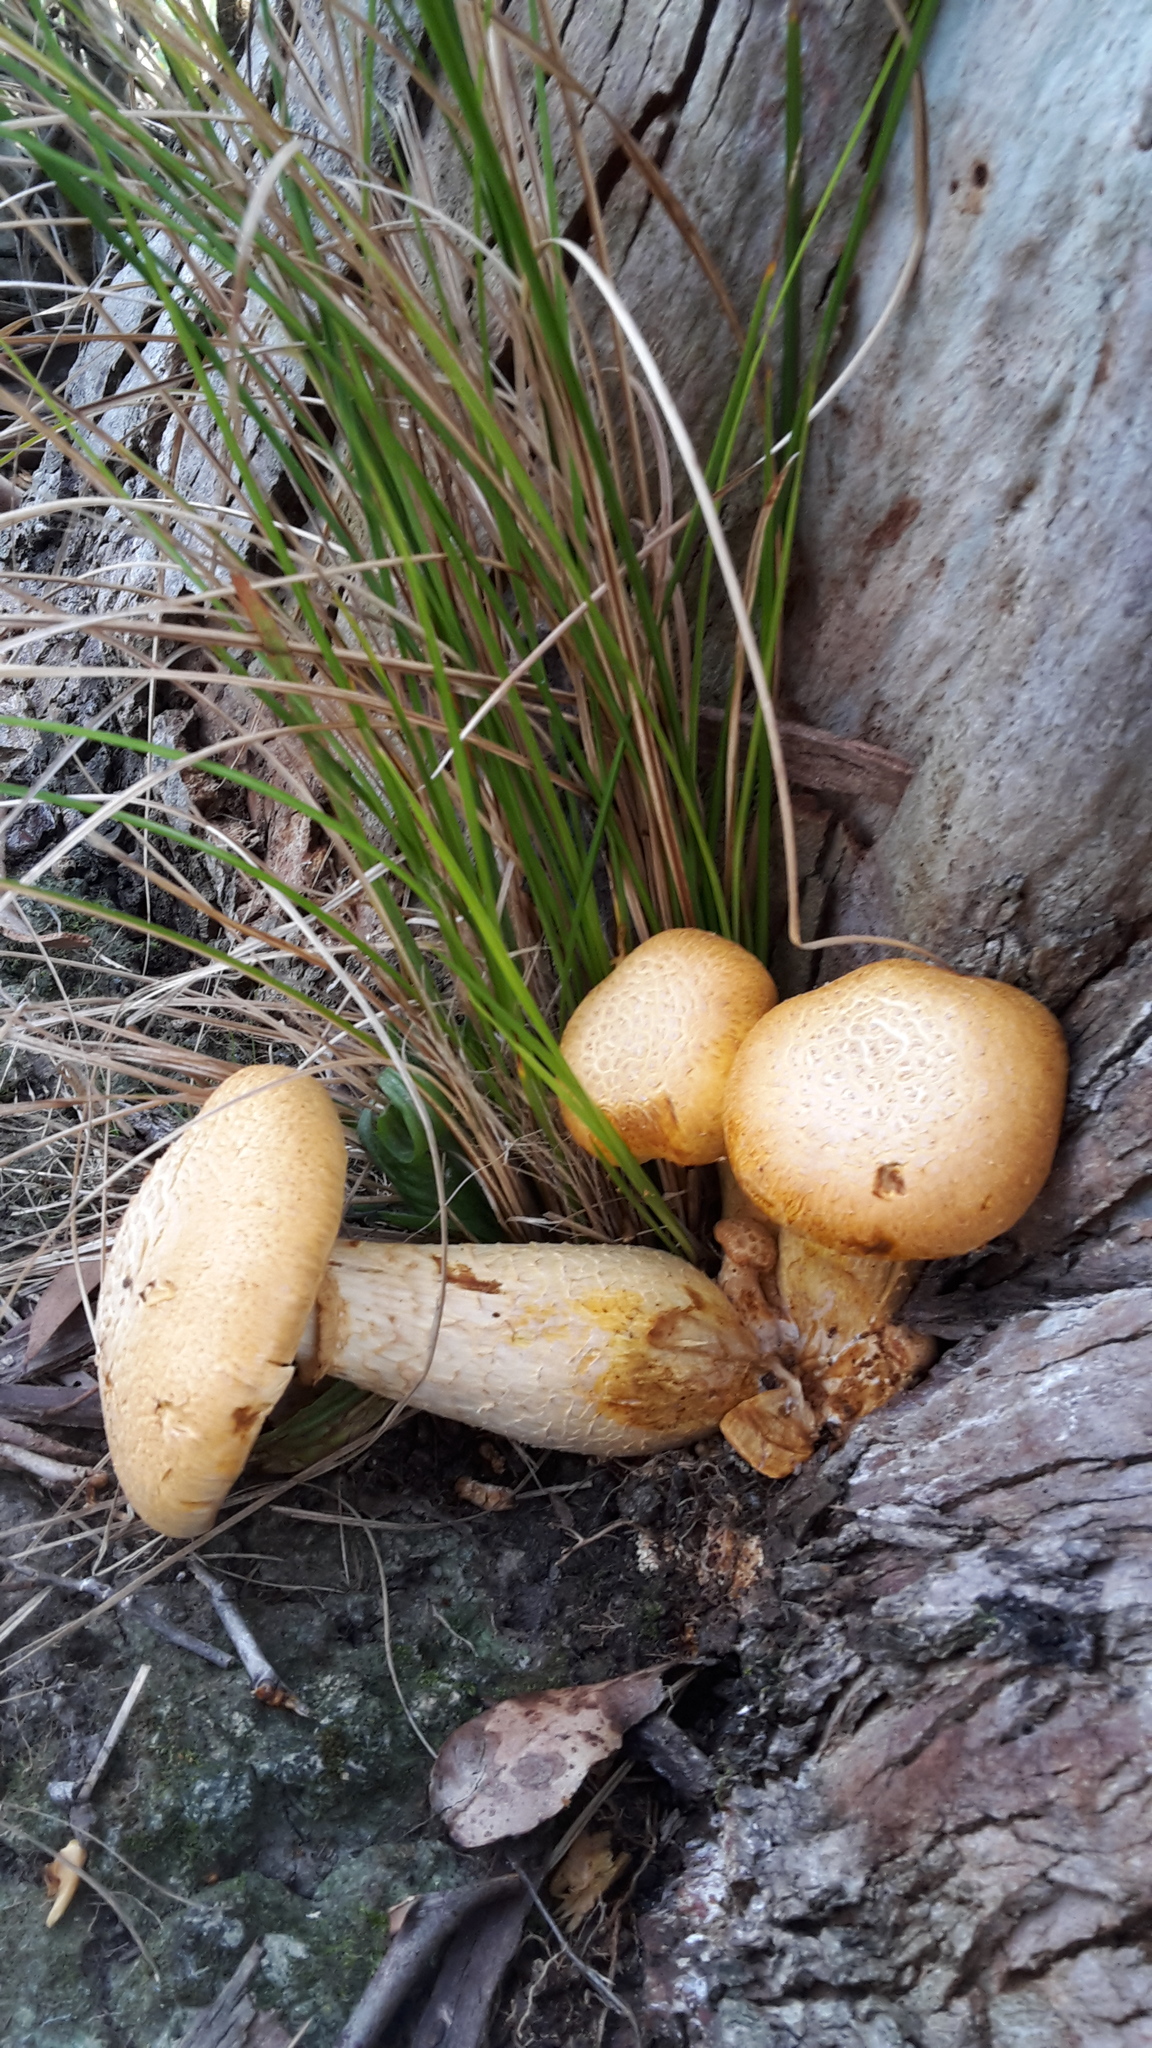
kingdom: Fungi
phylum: Basidiomycota
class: Agaricomycetes
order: Agaricales
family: Hymenogastraceae
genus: Gymnopilus
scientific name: Gymnopilus junonius
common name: Spectacular rustgill
